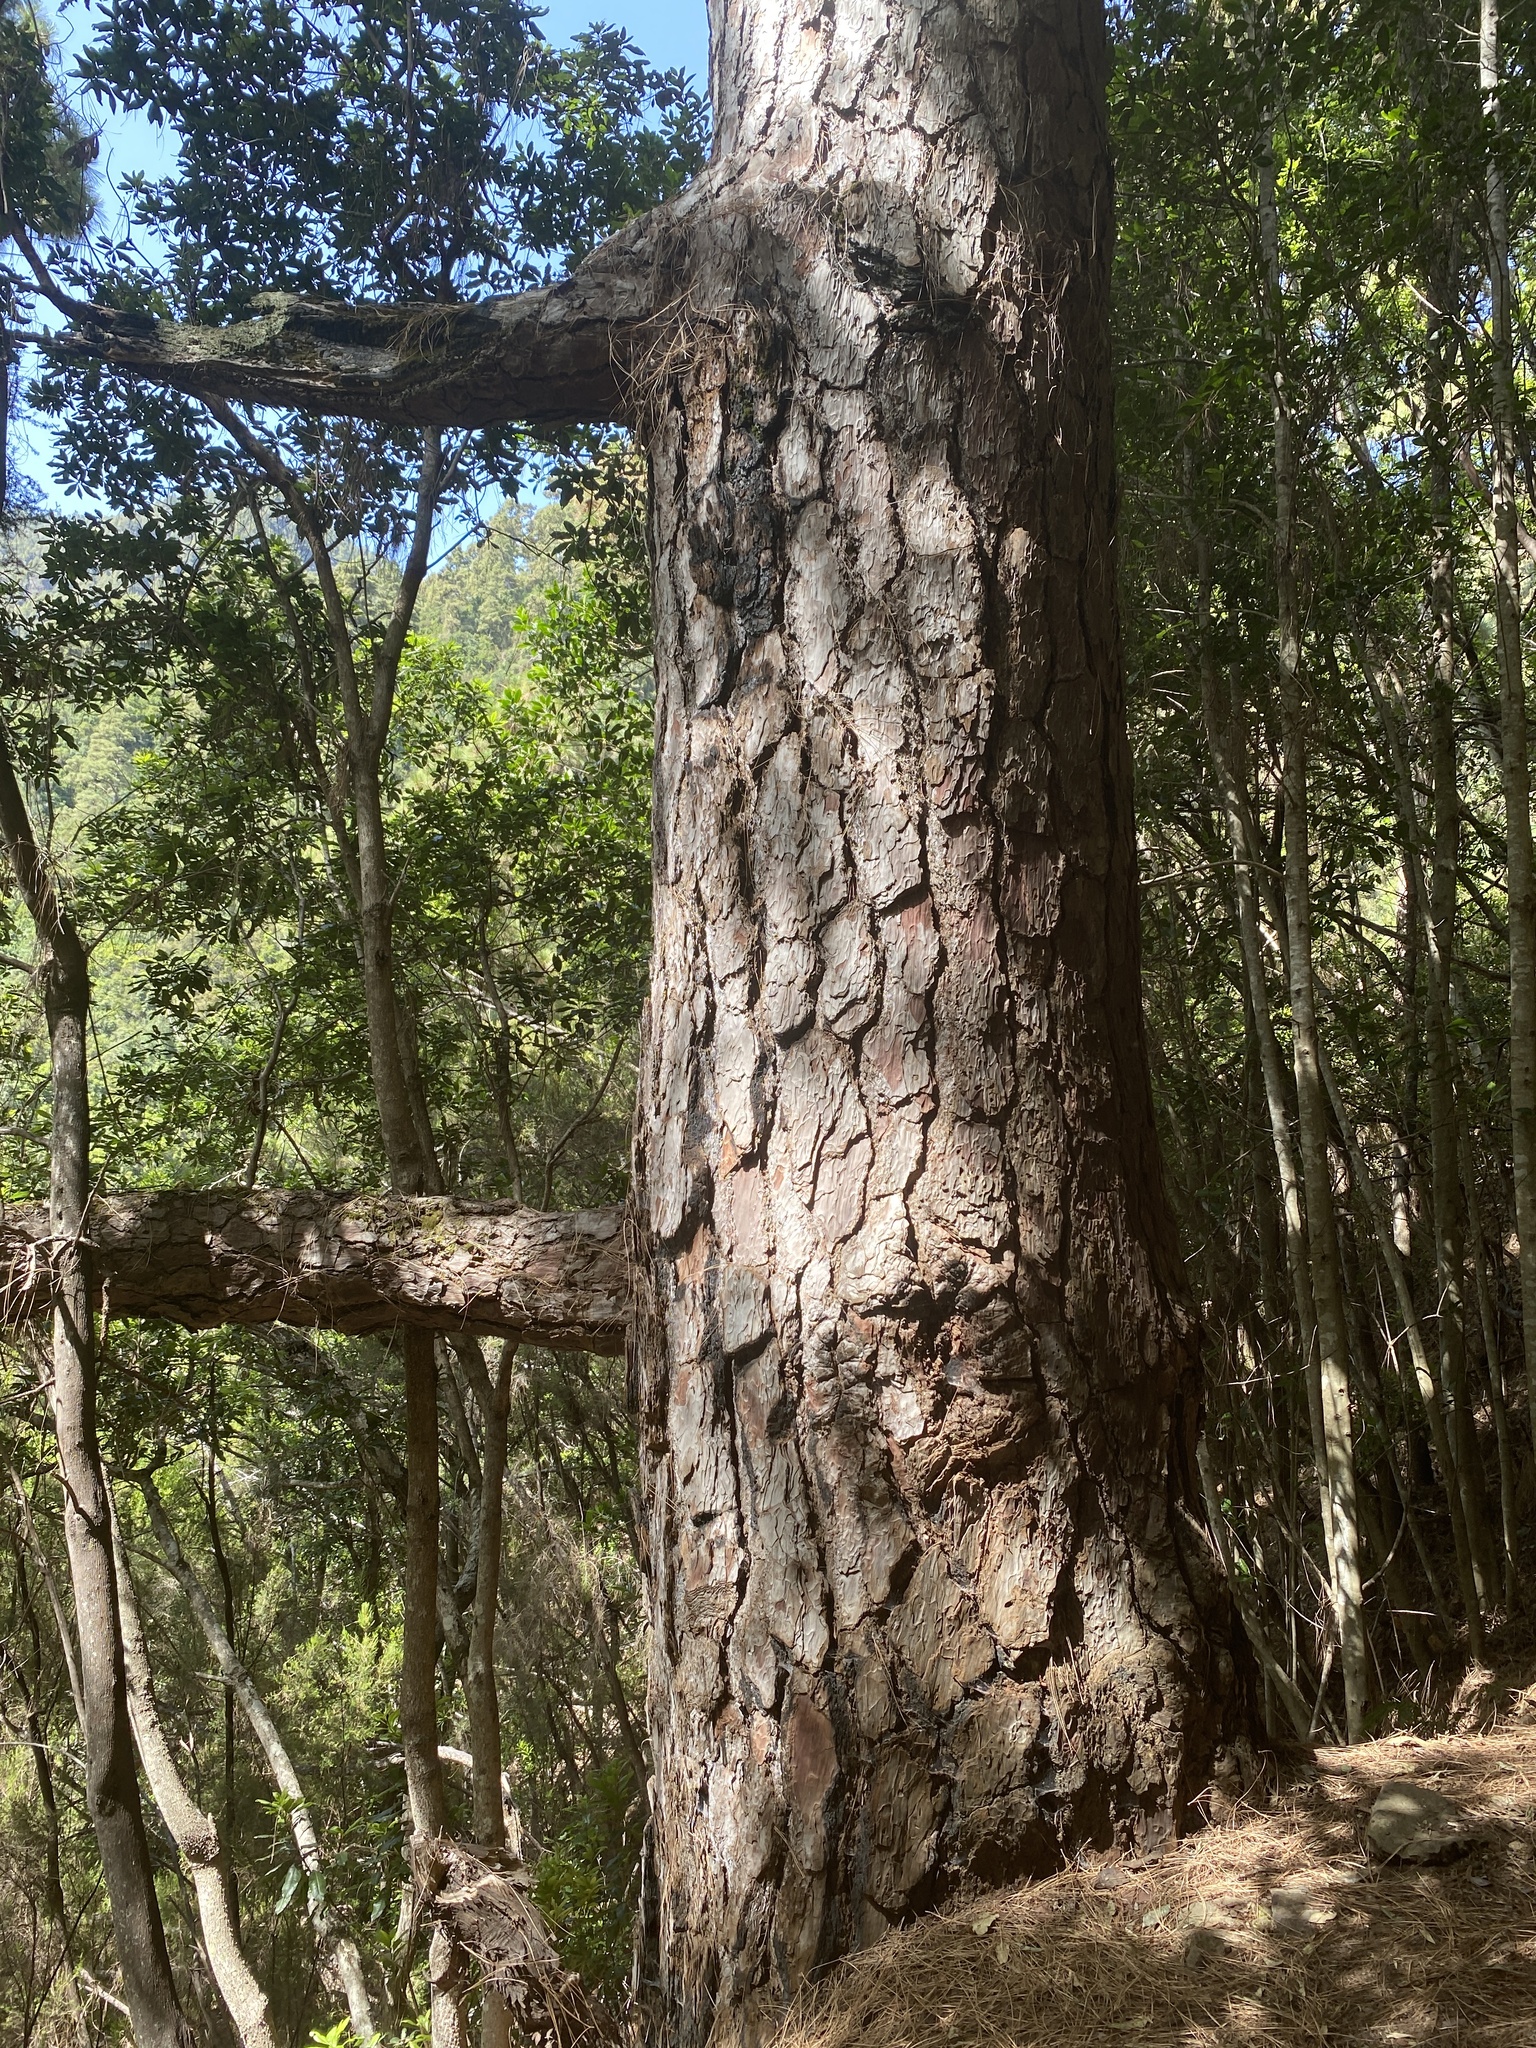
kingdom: Plantae
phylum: Tracheophyta
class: Pinopsida
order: Pinales
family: Pinaceae
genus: Pinus
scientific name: Pinus canariensis
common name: Canary islands pine
